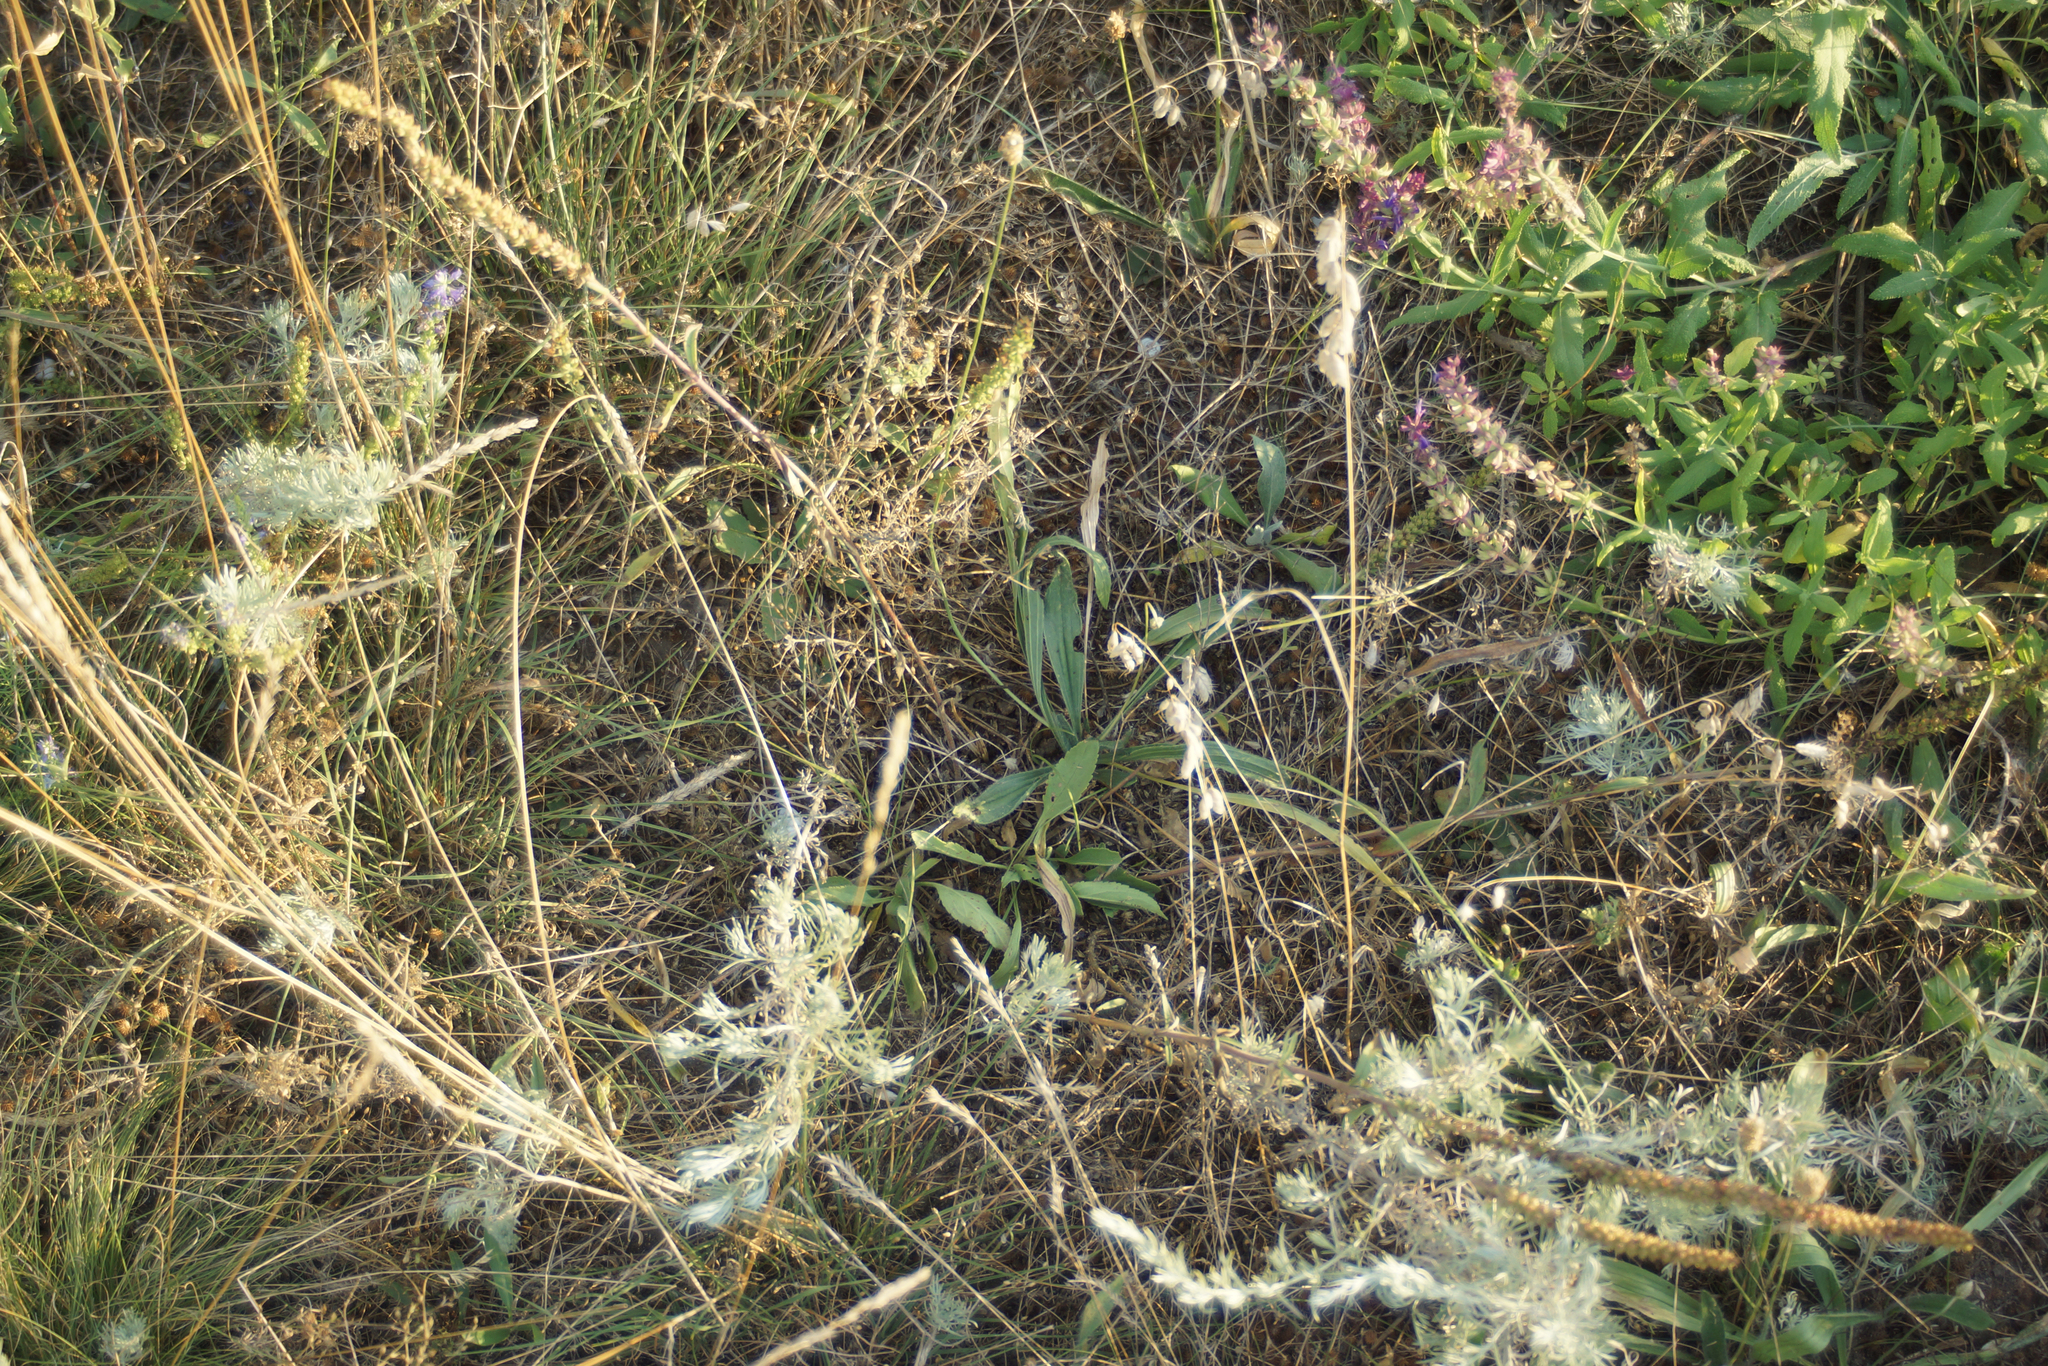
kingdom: Plantae
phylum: Tracheophyta
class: Magnoliopsida
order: Lamiales
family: Plantaginaceae
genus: Plantago
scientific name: Plantago lanceolata
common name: Ribwort plantain
